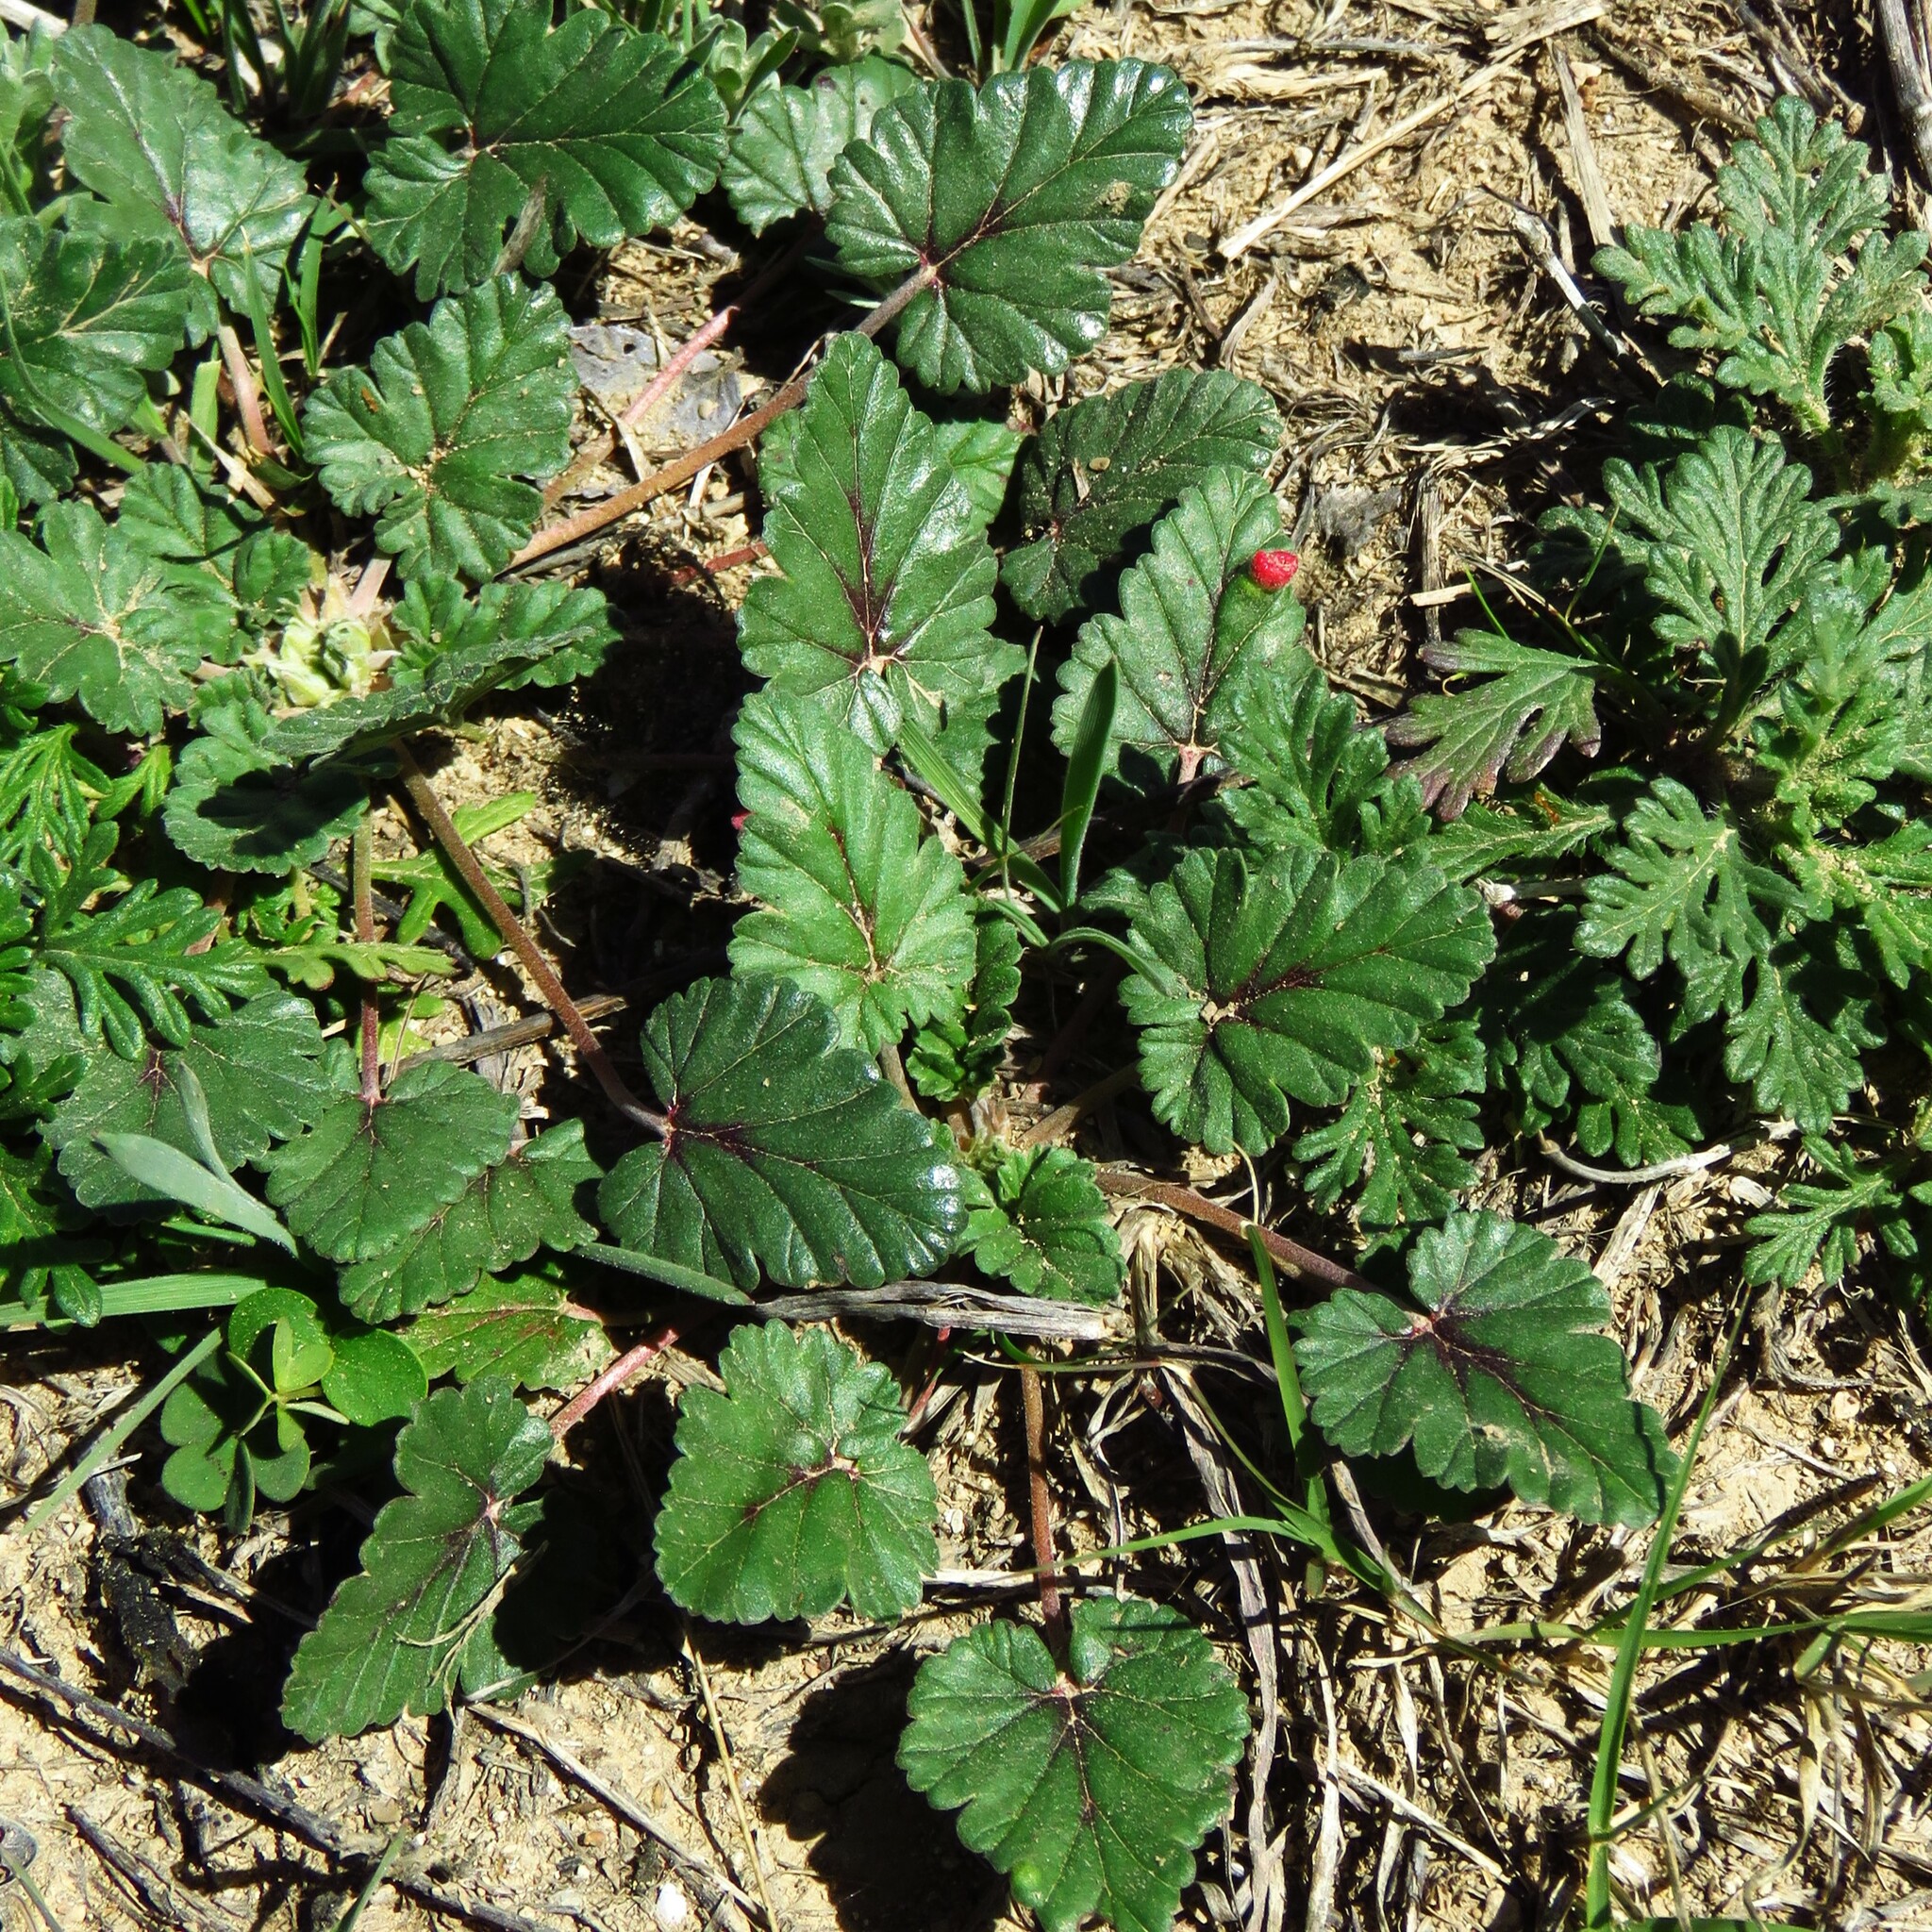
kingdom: Plantae
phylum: Tracheophyta
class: Magnoliopsida
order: Geraniales
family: Geraniaceae
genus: Erodium
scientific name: Erodium texanum
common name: Texas stork's-bill
